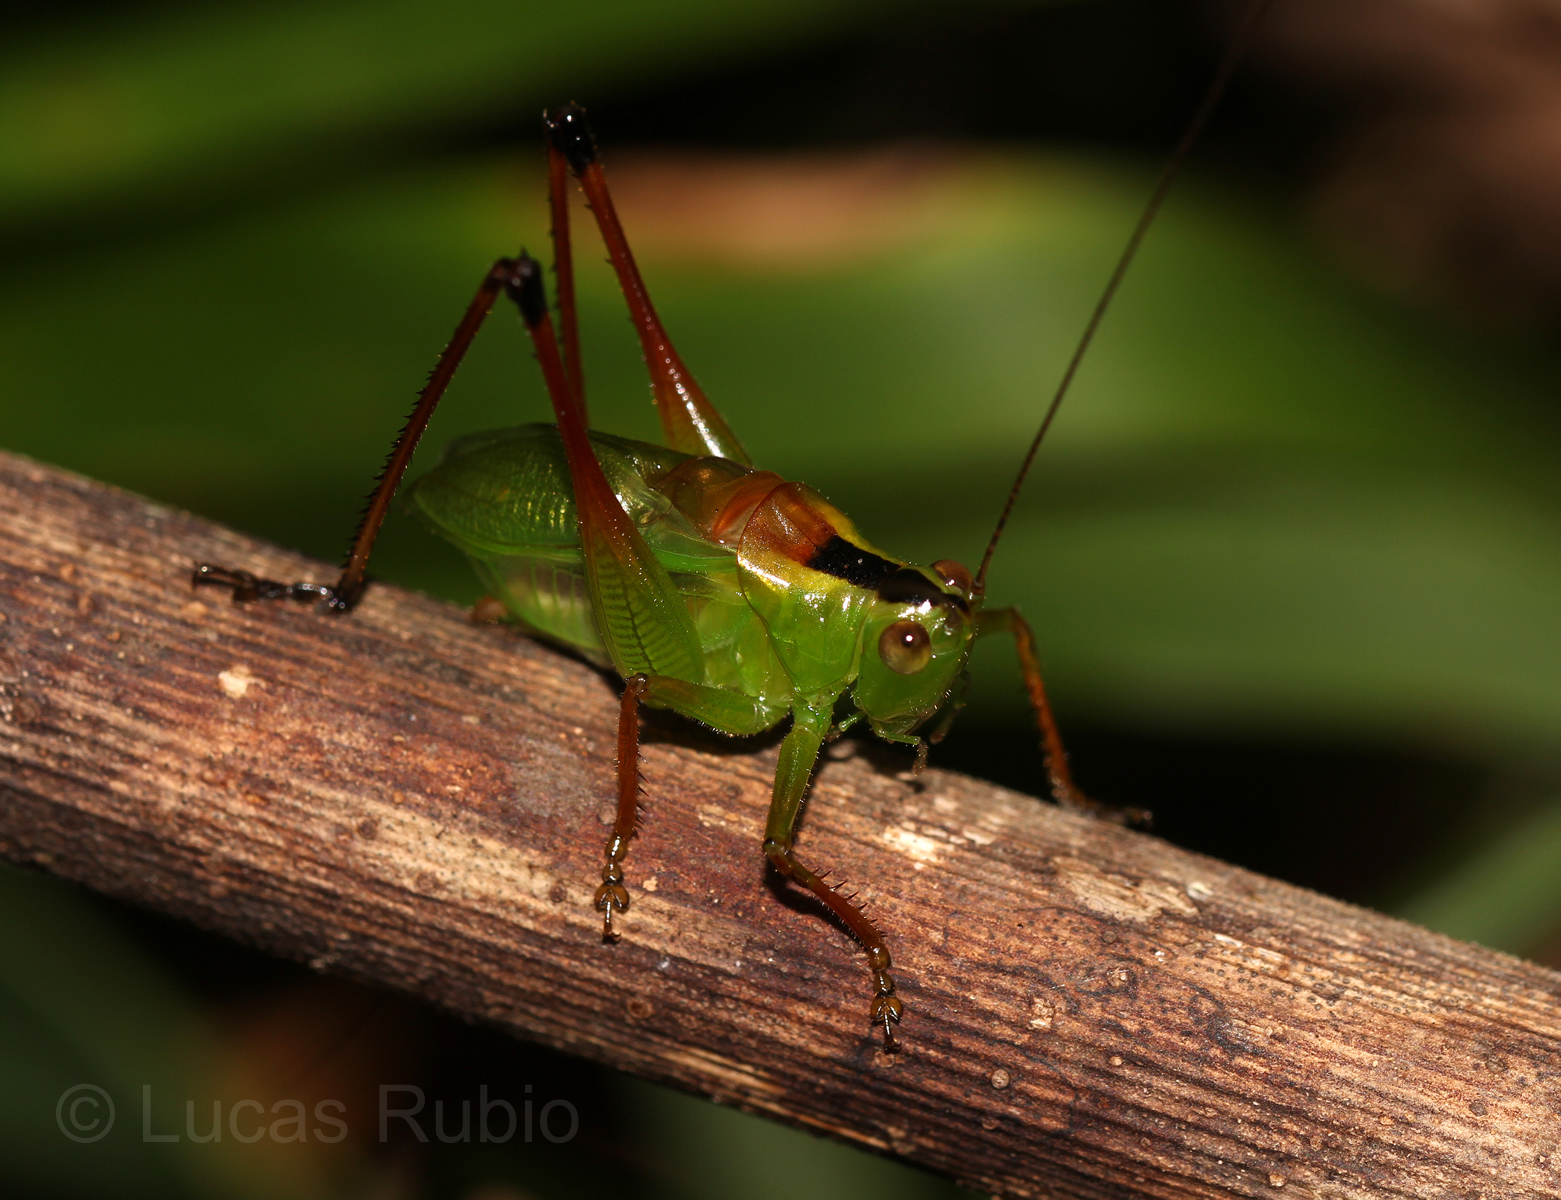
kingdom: Animalia
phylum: Arthropoda
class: Insecta
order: Orthoptera
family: Tettigoniidae
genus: Xiphelimum
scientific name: Xiphelimum amplipennis
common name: Clear-wing meadow katydid
